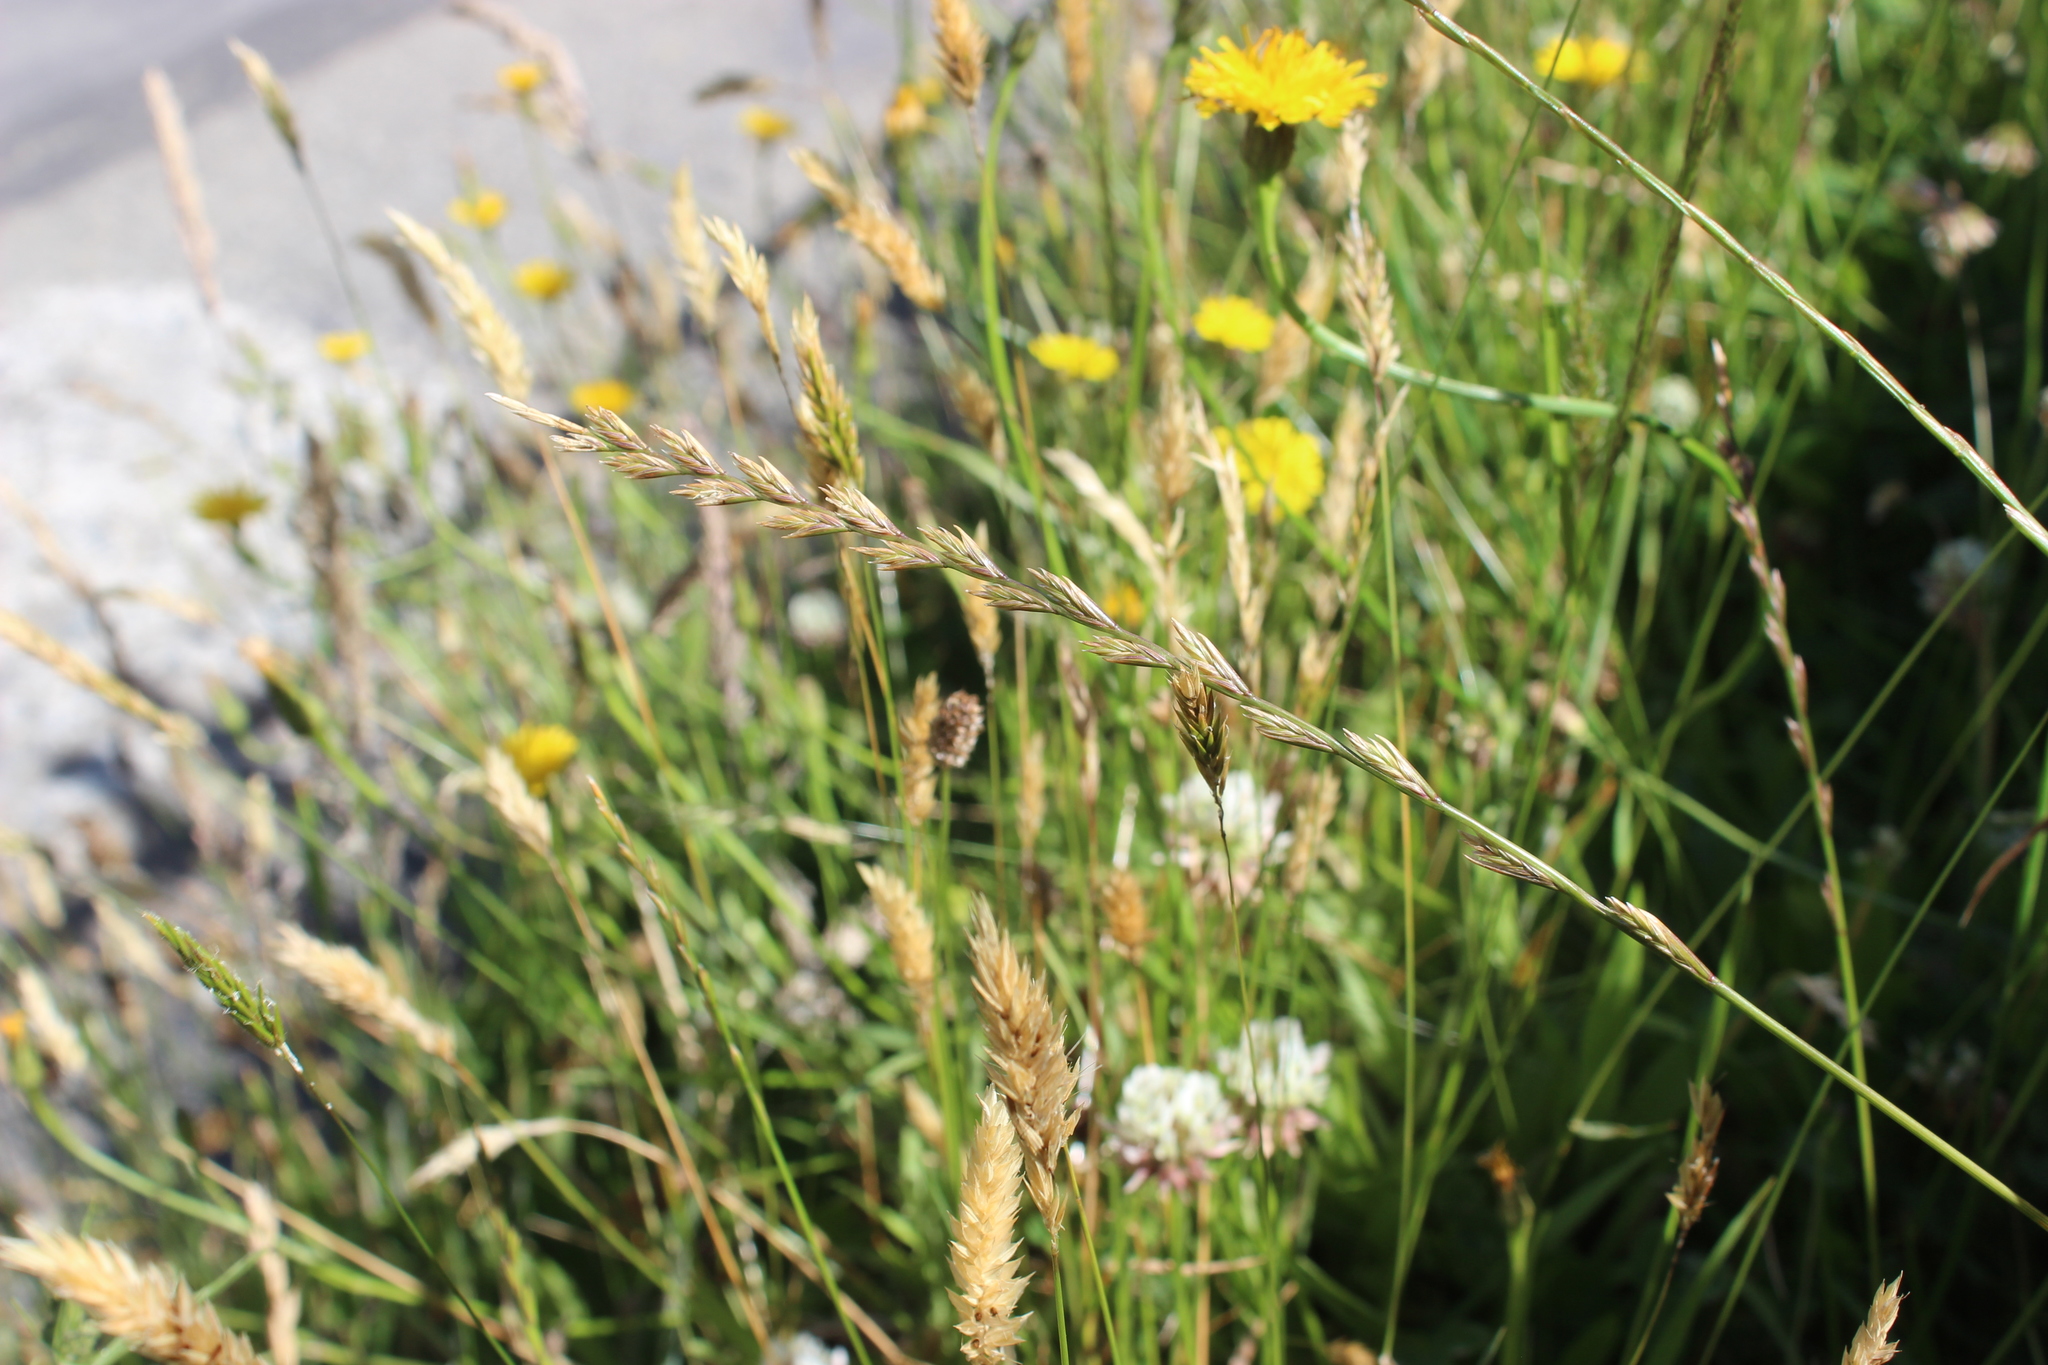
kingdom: Plantae
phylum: Tracheophyta
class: Liliopsida
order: Poales
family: Poaceae
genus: Lolium
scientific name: Lolium perenne
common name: Perennial ryegrass
